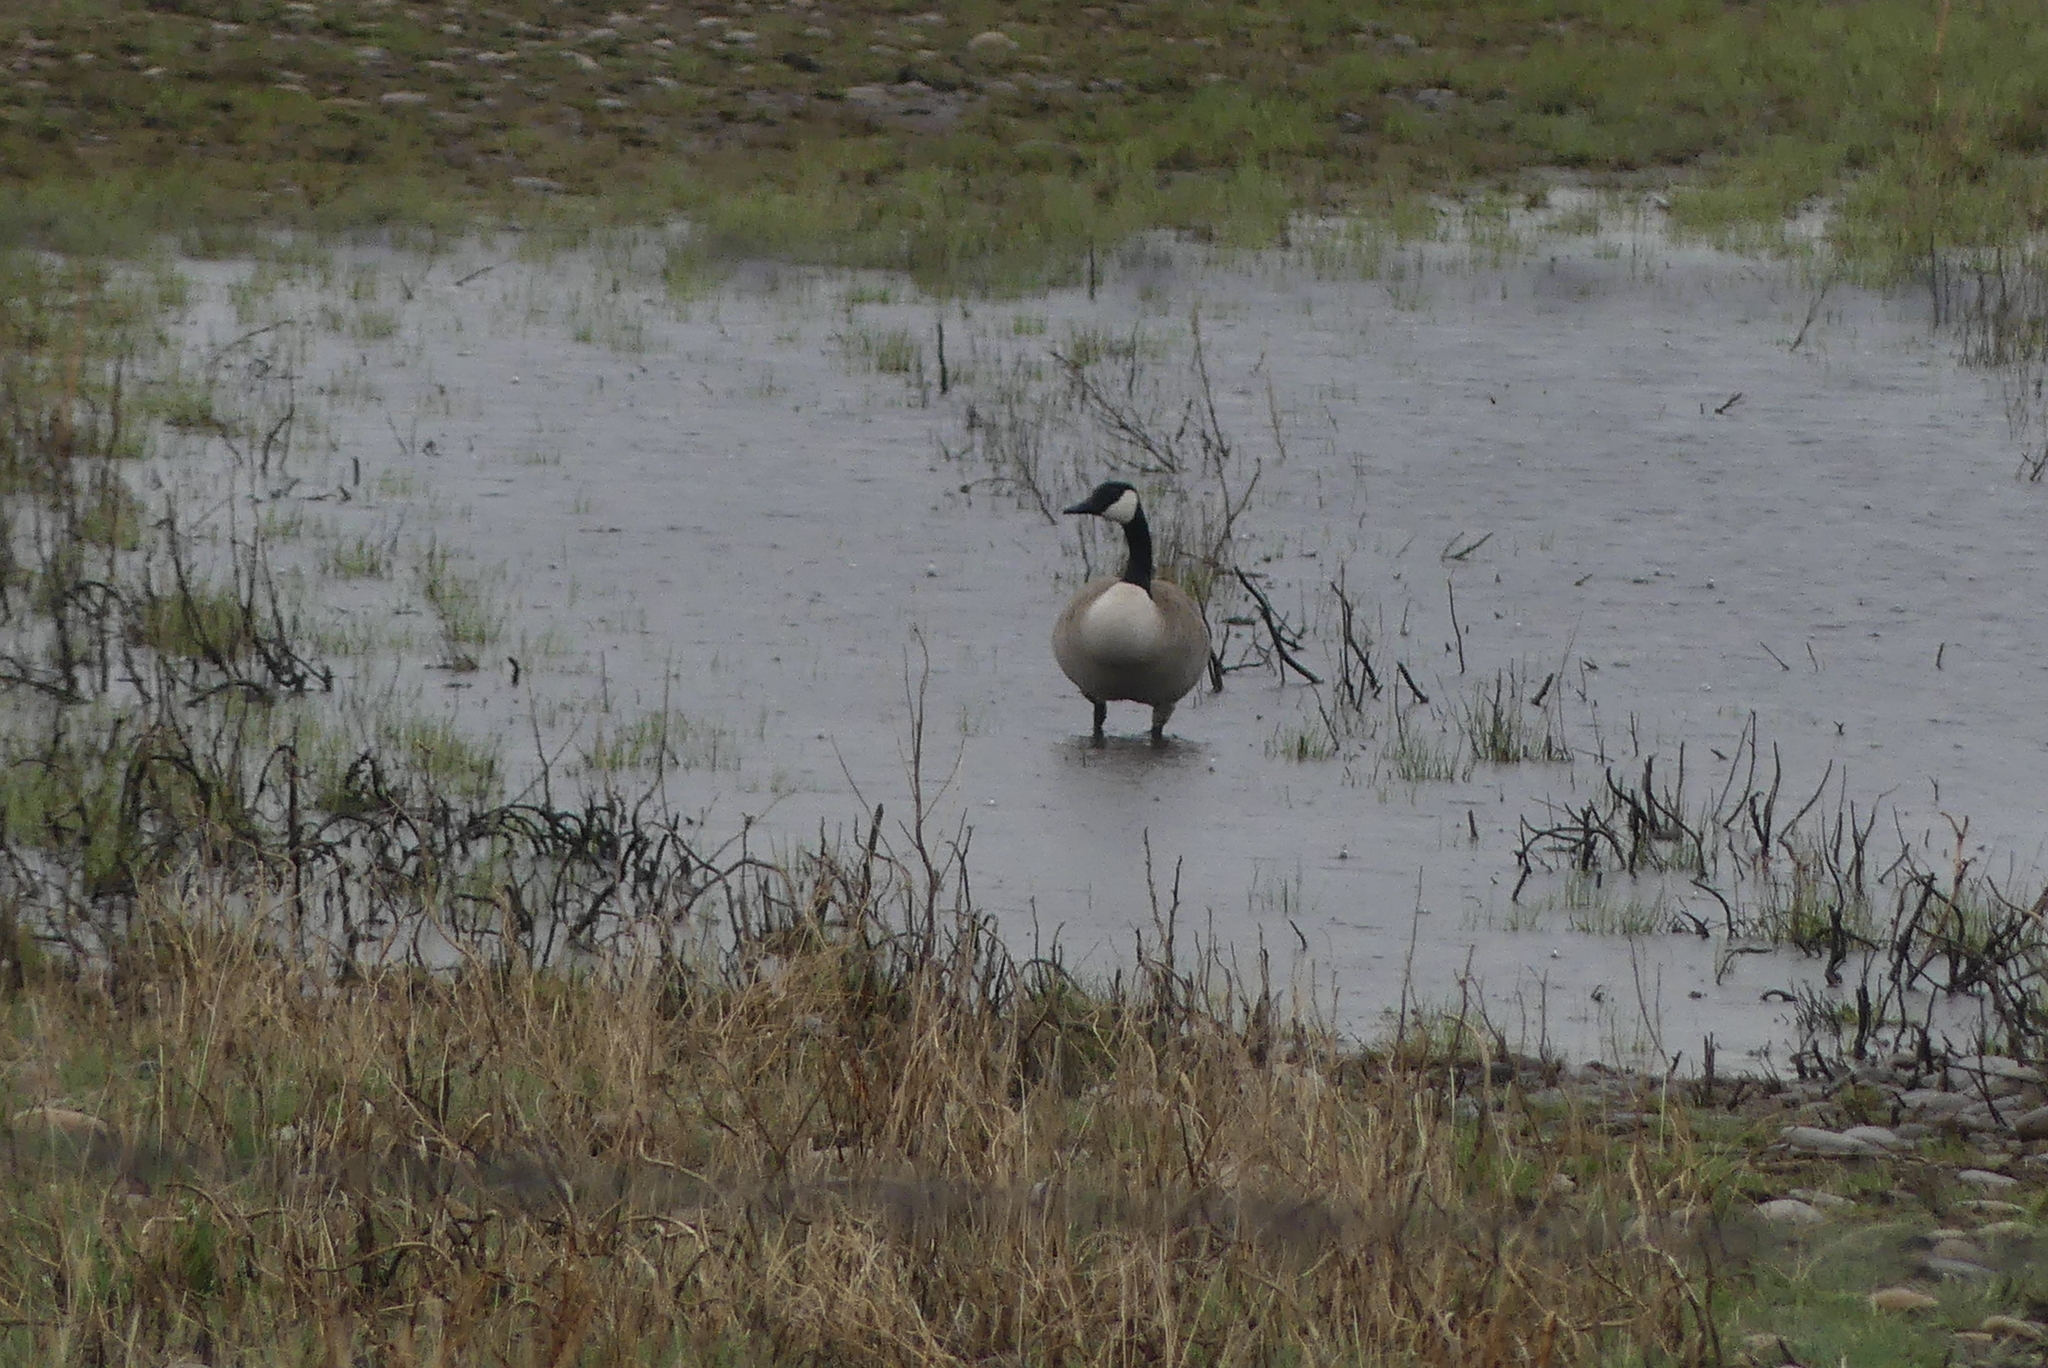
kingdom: Animalia
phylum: Chordata
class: Aves
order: Anseriformes
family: Anatidae
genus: Branta
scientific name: Branta canadensis
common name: Canada goose
